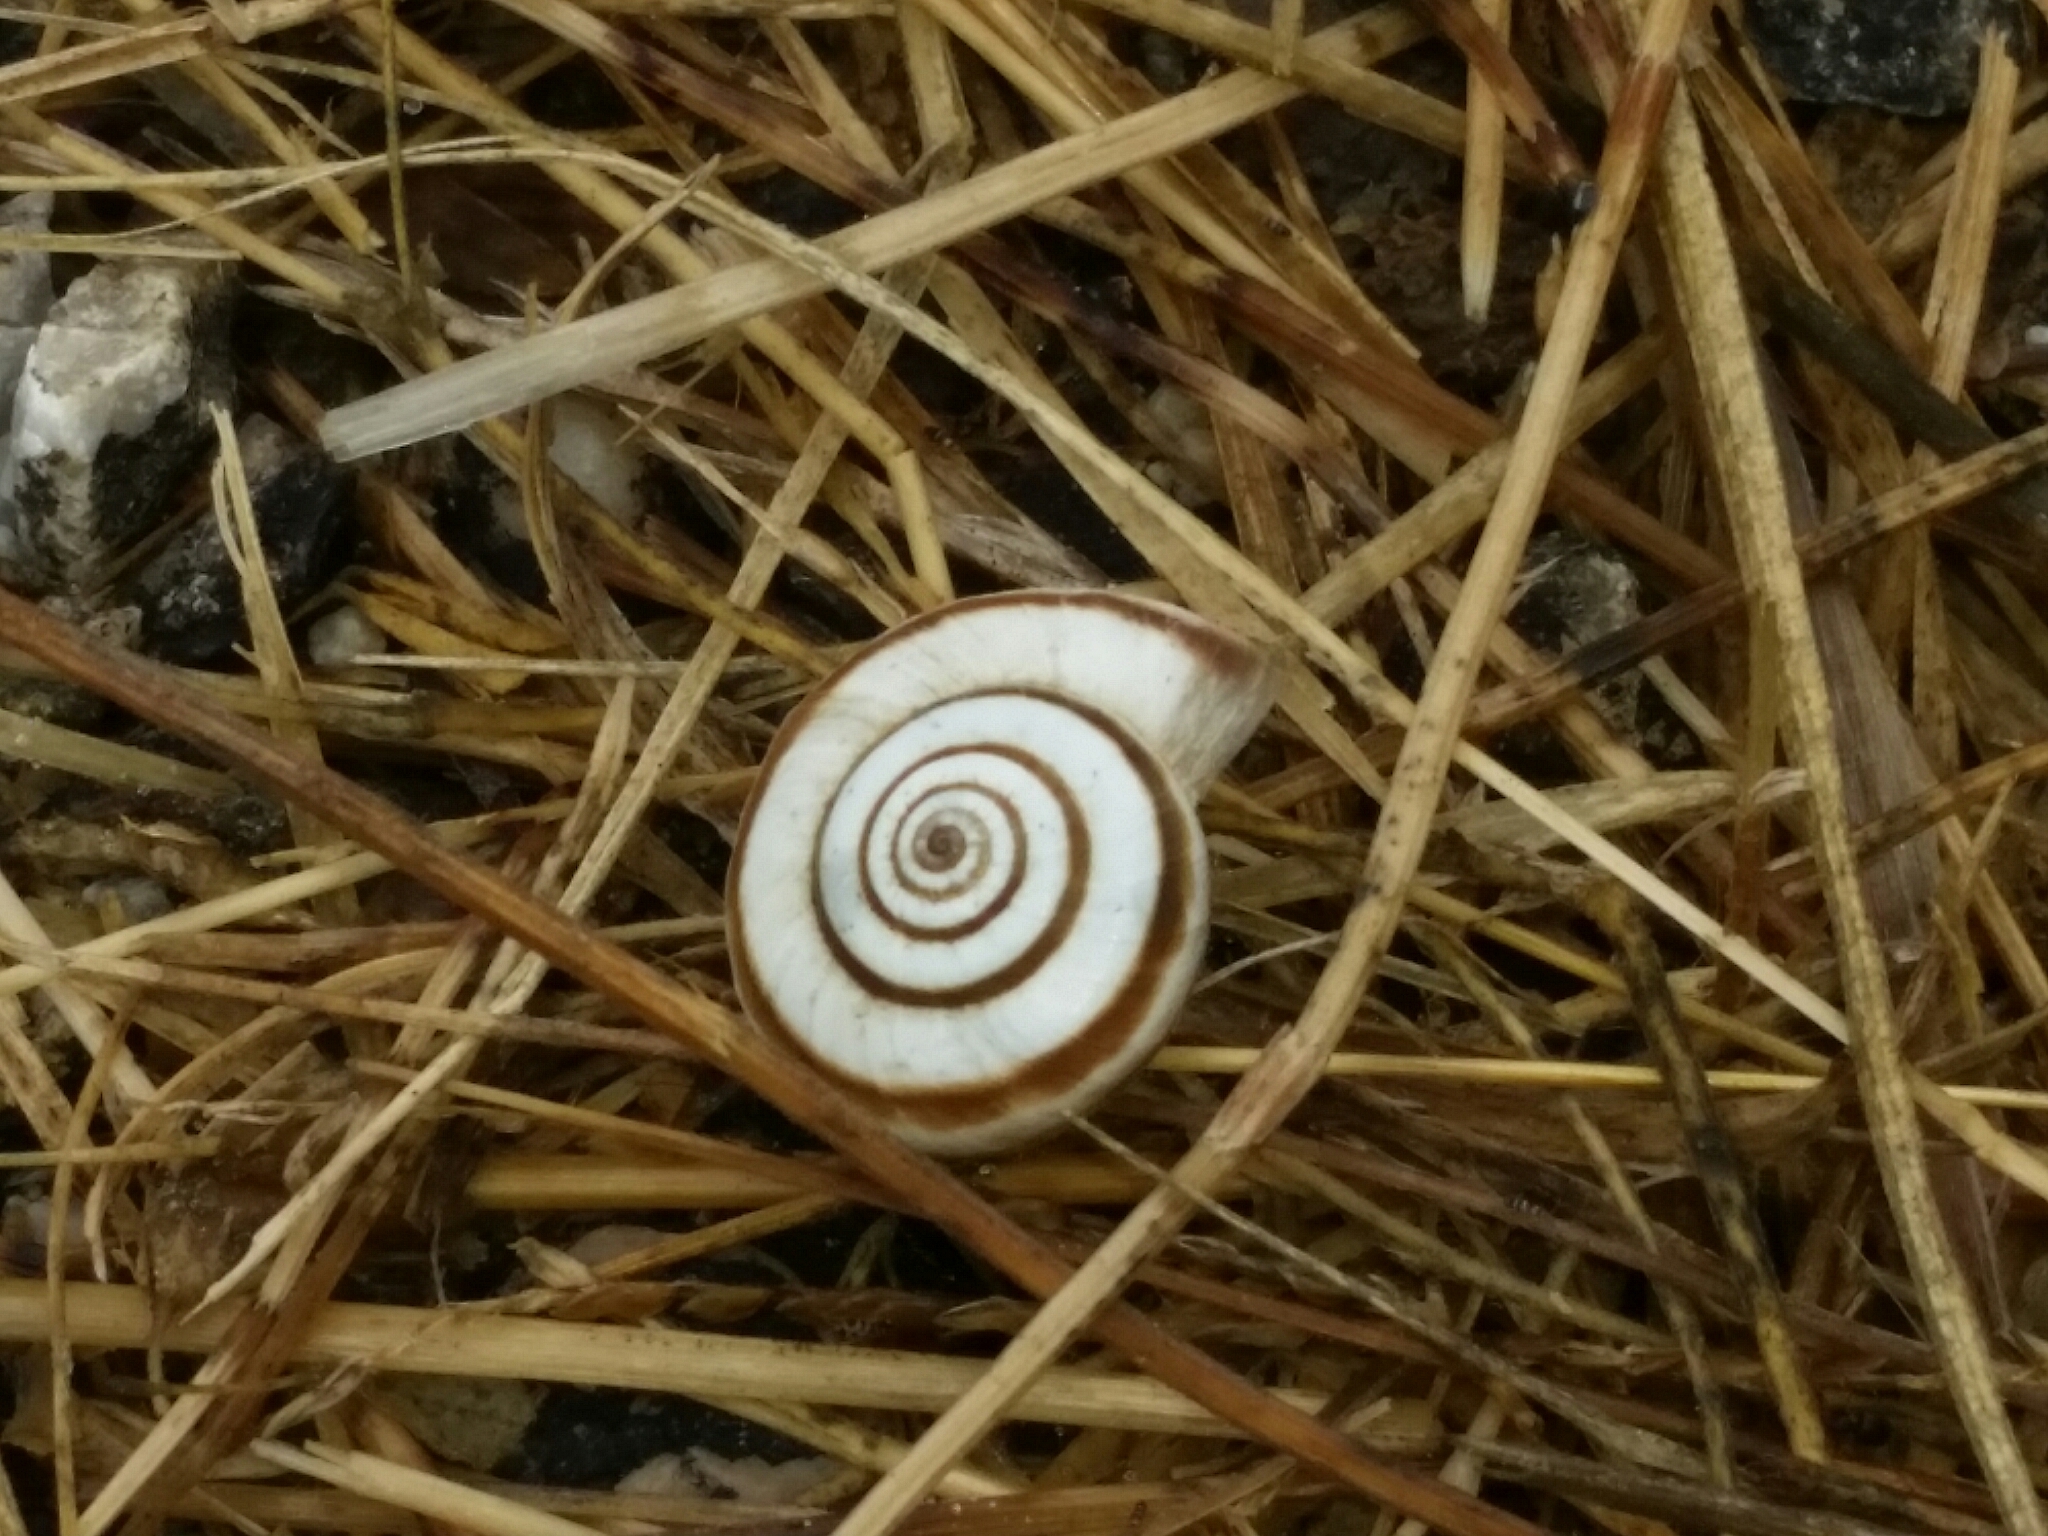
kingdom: Animalia
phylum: Mollusca
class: Gastropoda
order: Stylommatophora
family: Geomitridae
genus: Cernuella
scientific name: Cernuella neglecta
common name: Neglected dune snail
